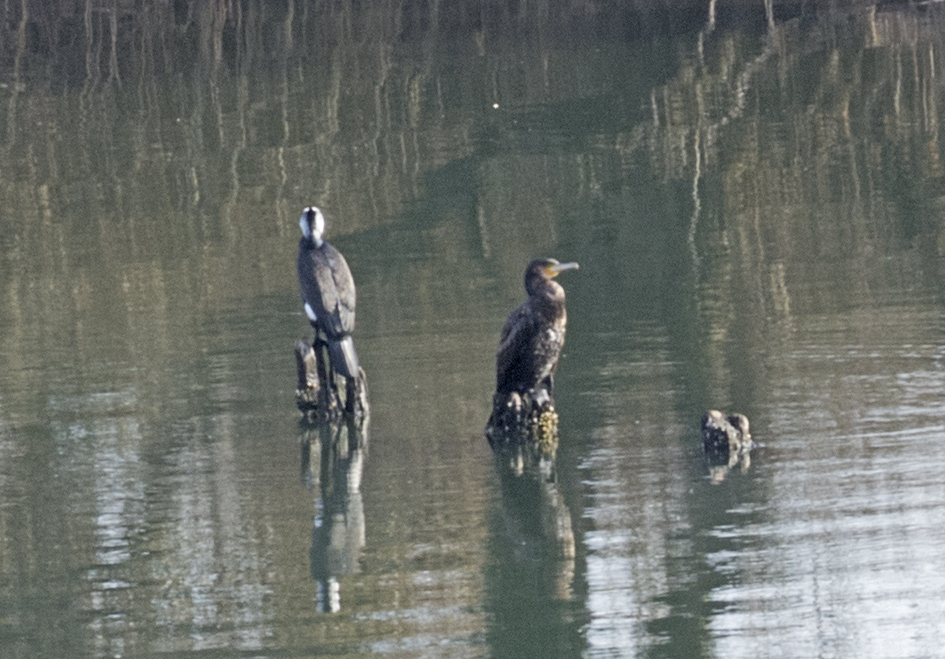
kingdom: Animalia
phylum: Chordata
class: Aves
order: Suliformes
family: Phalacrocoracidae
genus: Phalacrocorax
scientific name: Phalacrocorax carbo
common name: Great cormorant
